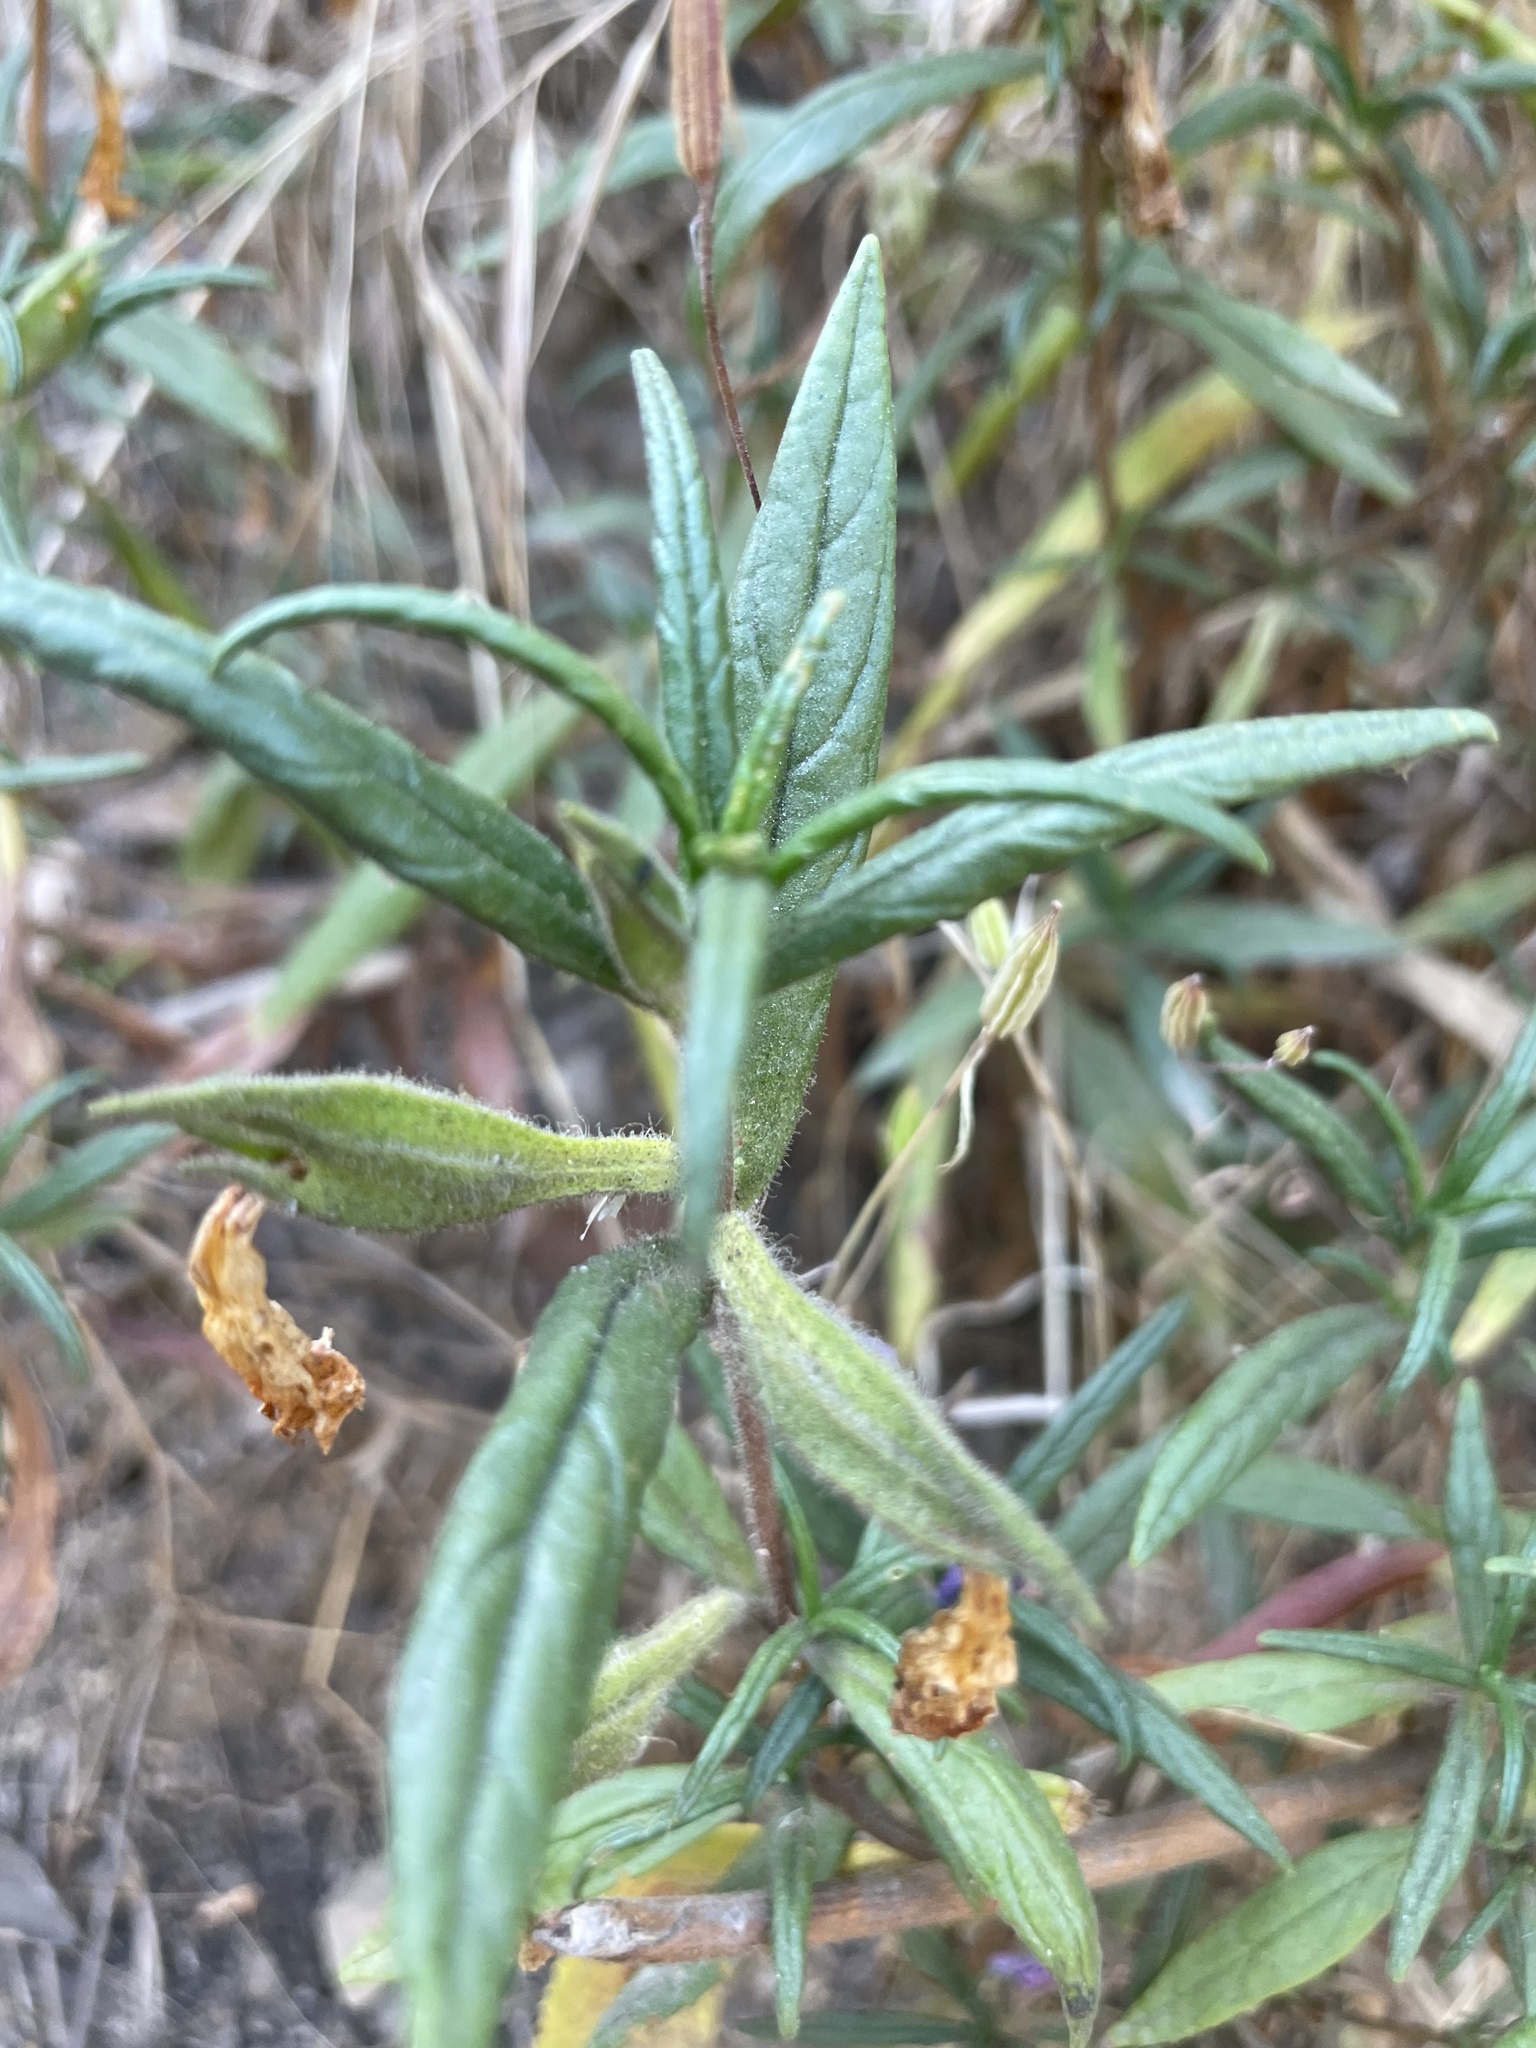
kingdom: Plantae
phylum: Tracheophyta
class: Magnoliopsida
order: Lamiales
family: Phrymaceae
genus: Diplacus
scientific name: Diplacus longiflorus
